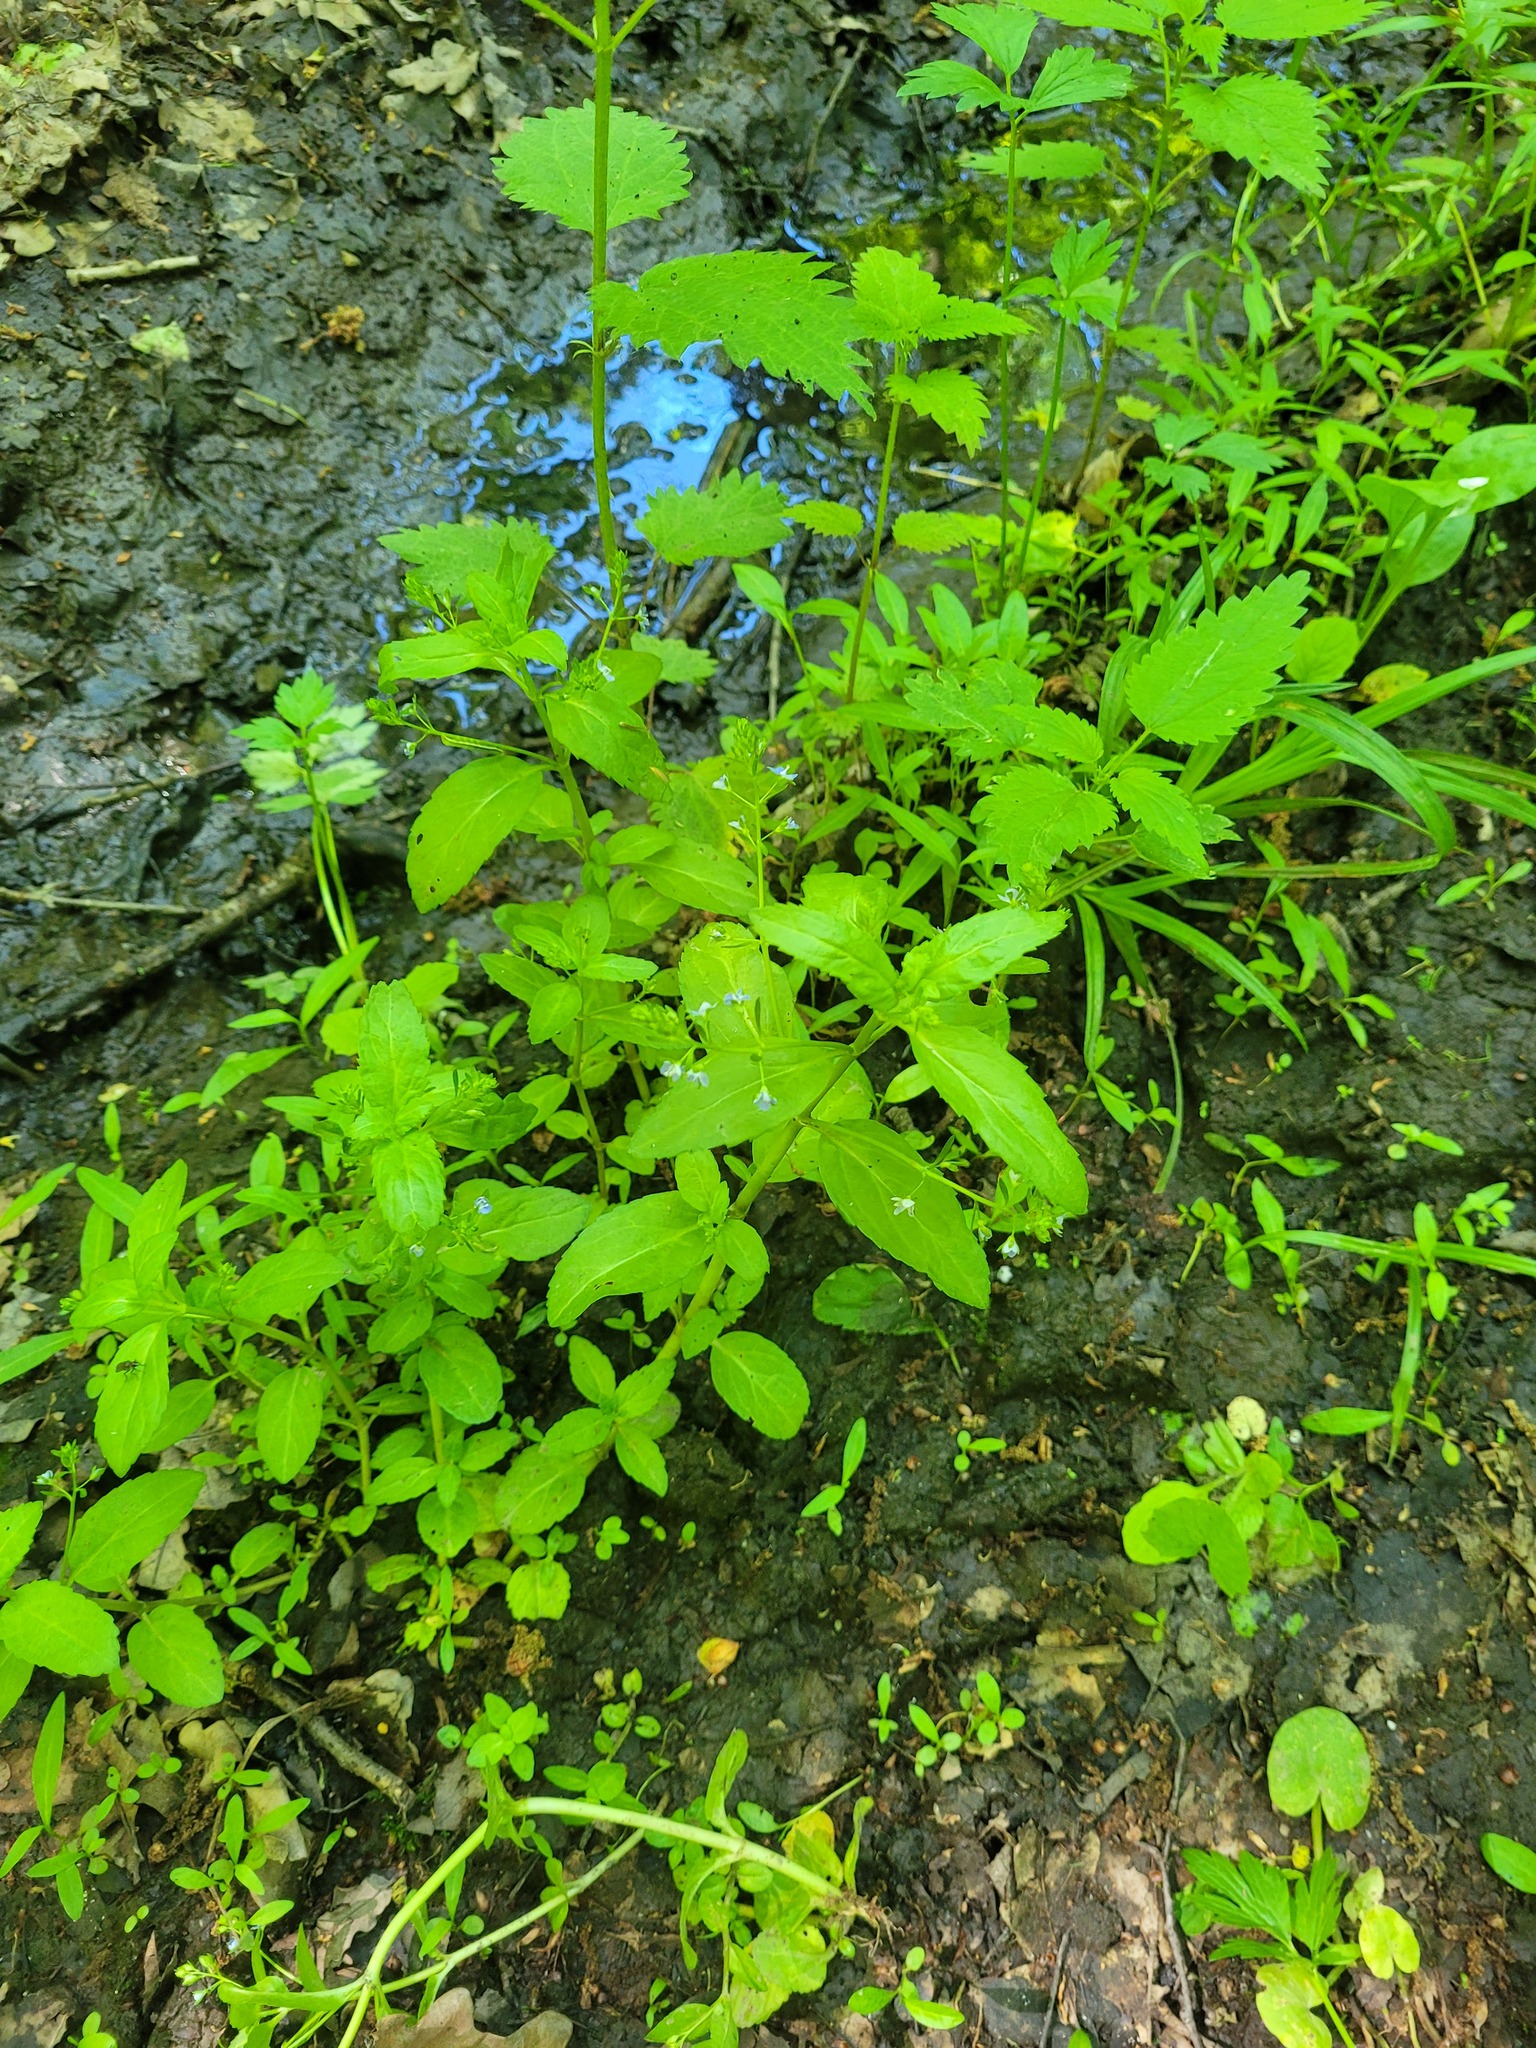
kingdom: Plantae
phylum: Tracheophyta
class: Magnoliopsida
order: Lamiales
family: Plantaginaceae
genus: Veronica
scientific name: Veronica beccabunga
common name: Brooklime
